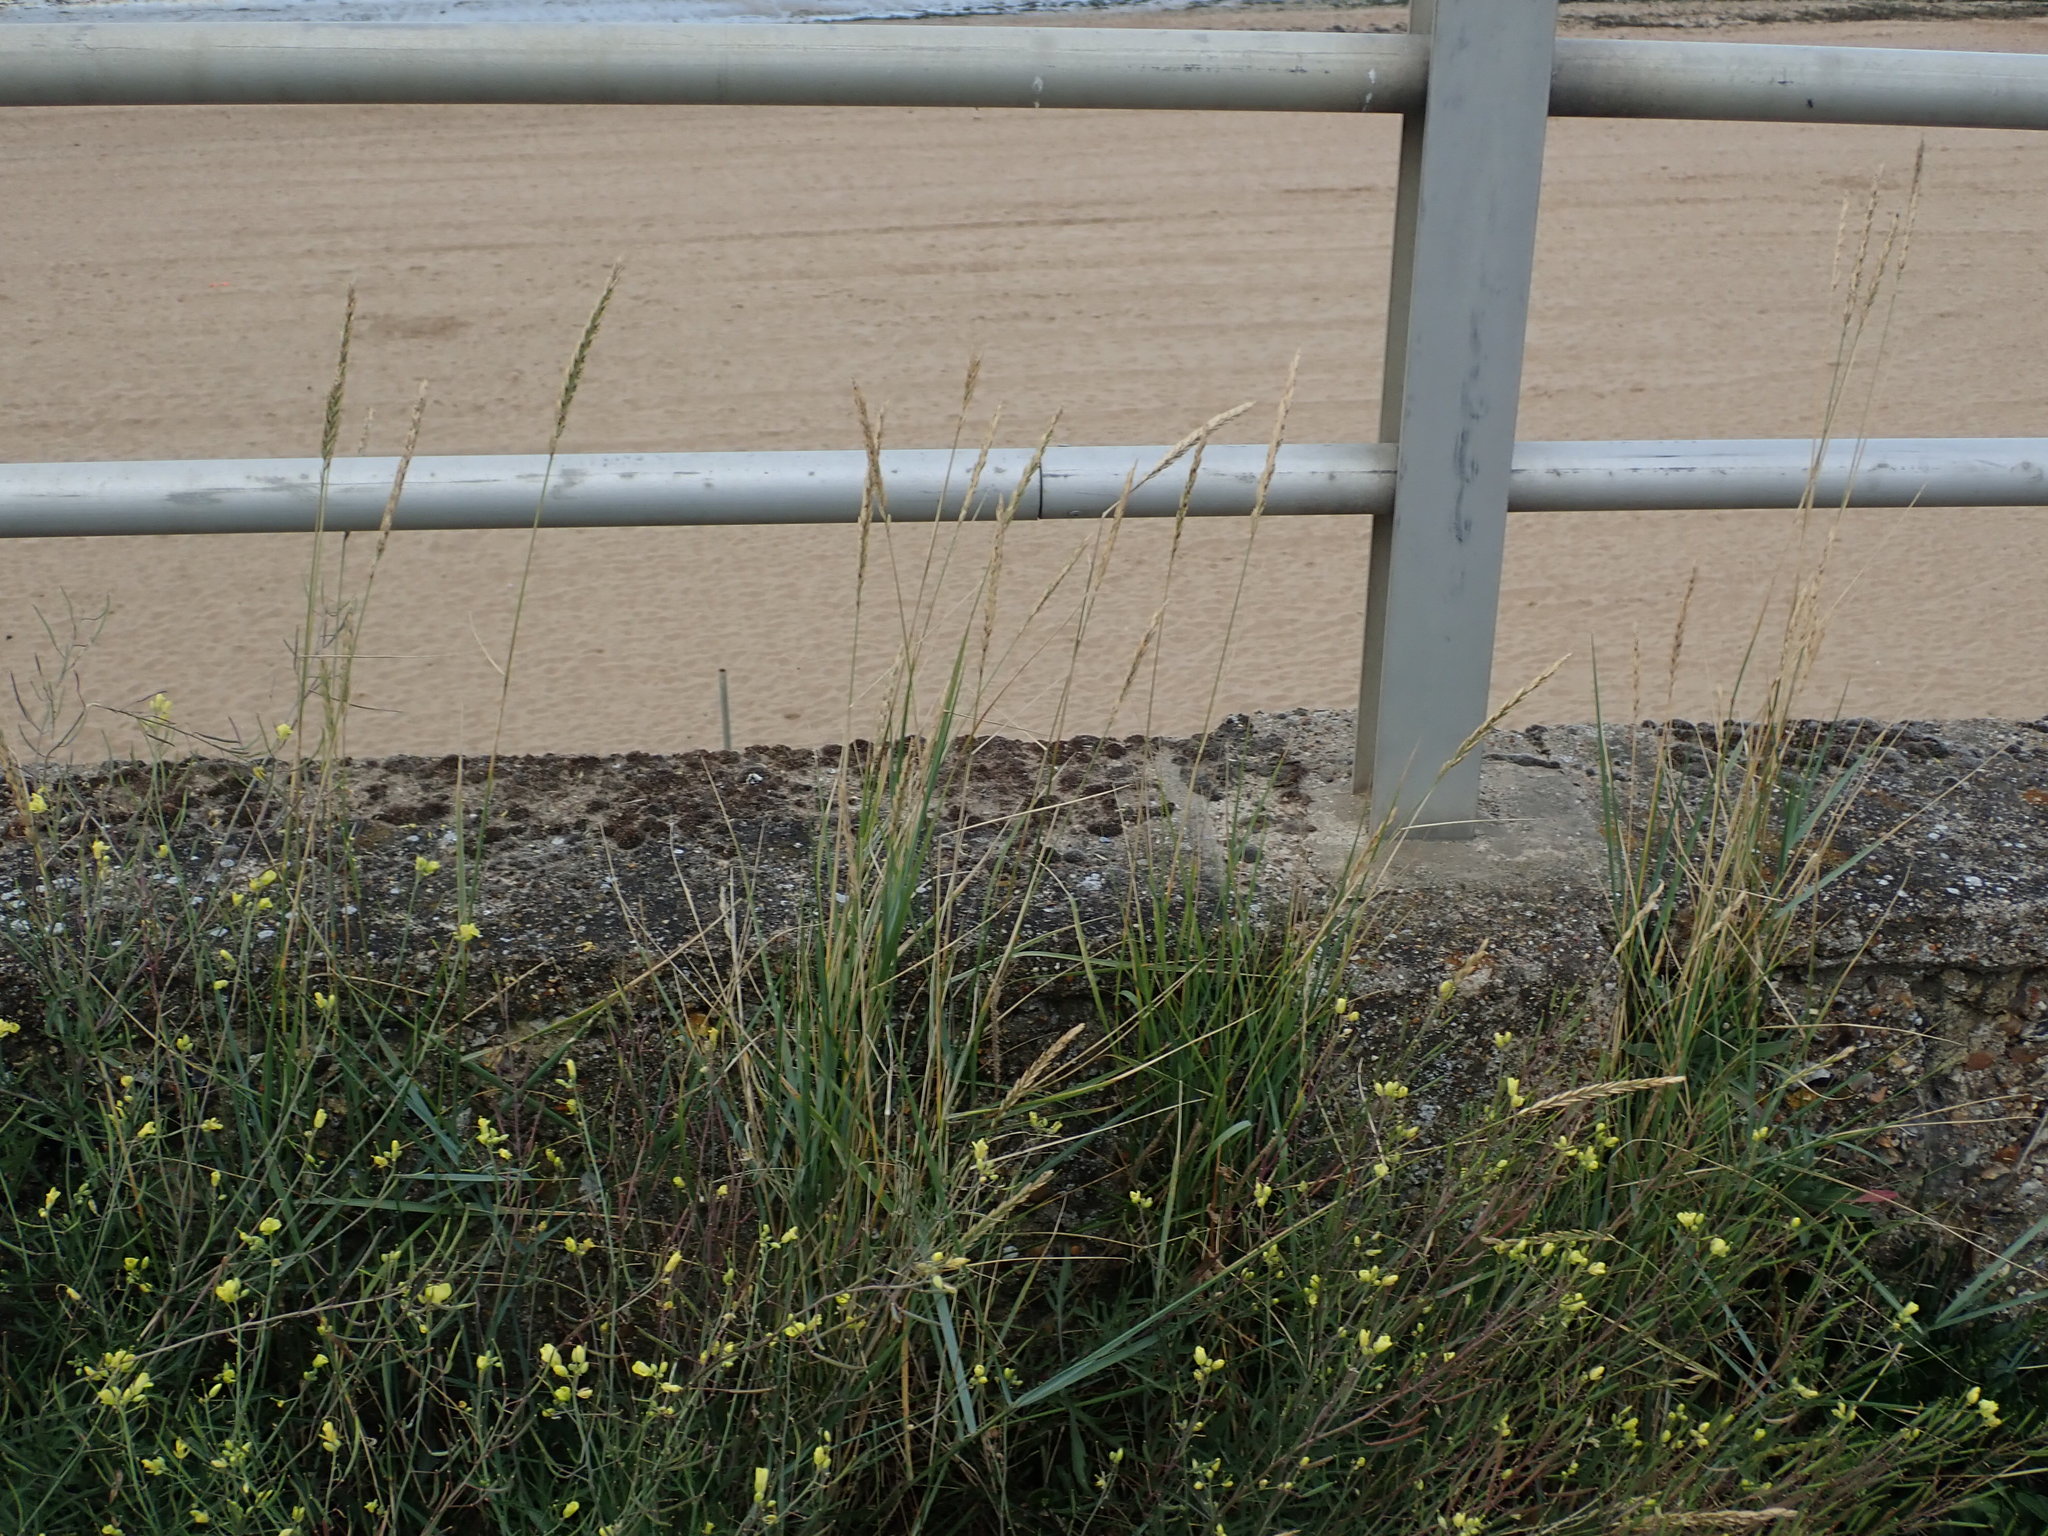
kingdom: Plantae
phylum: Tracheophyta
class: Liliopsida
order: Poales
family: Poaceae
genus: Elymus
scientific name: Elymus athericus
